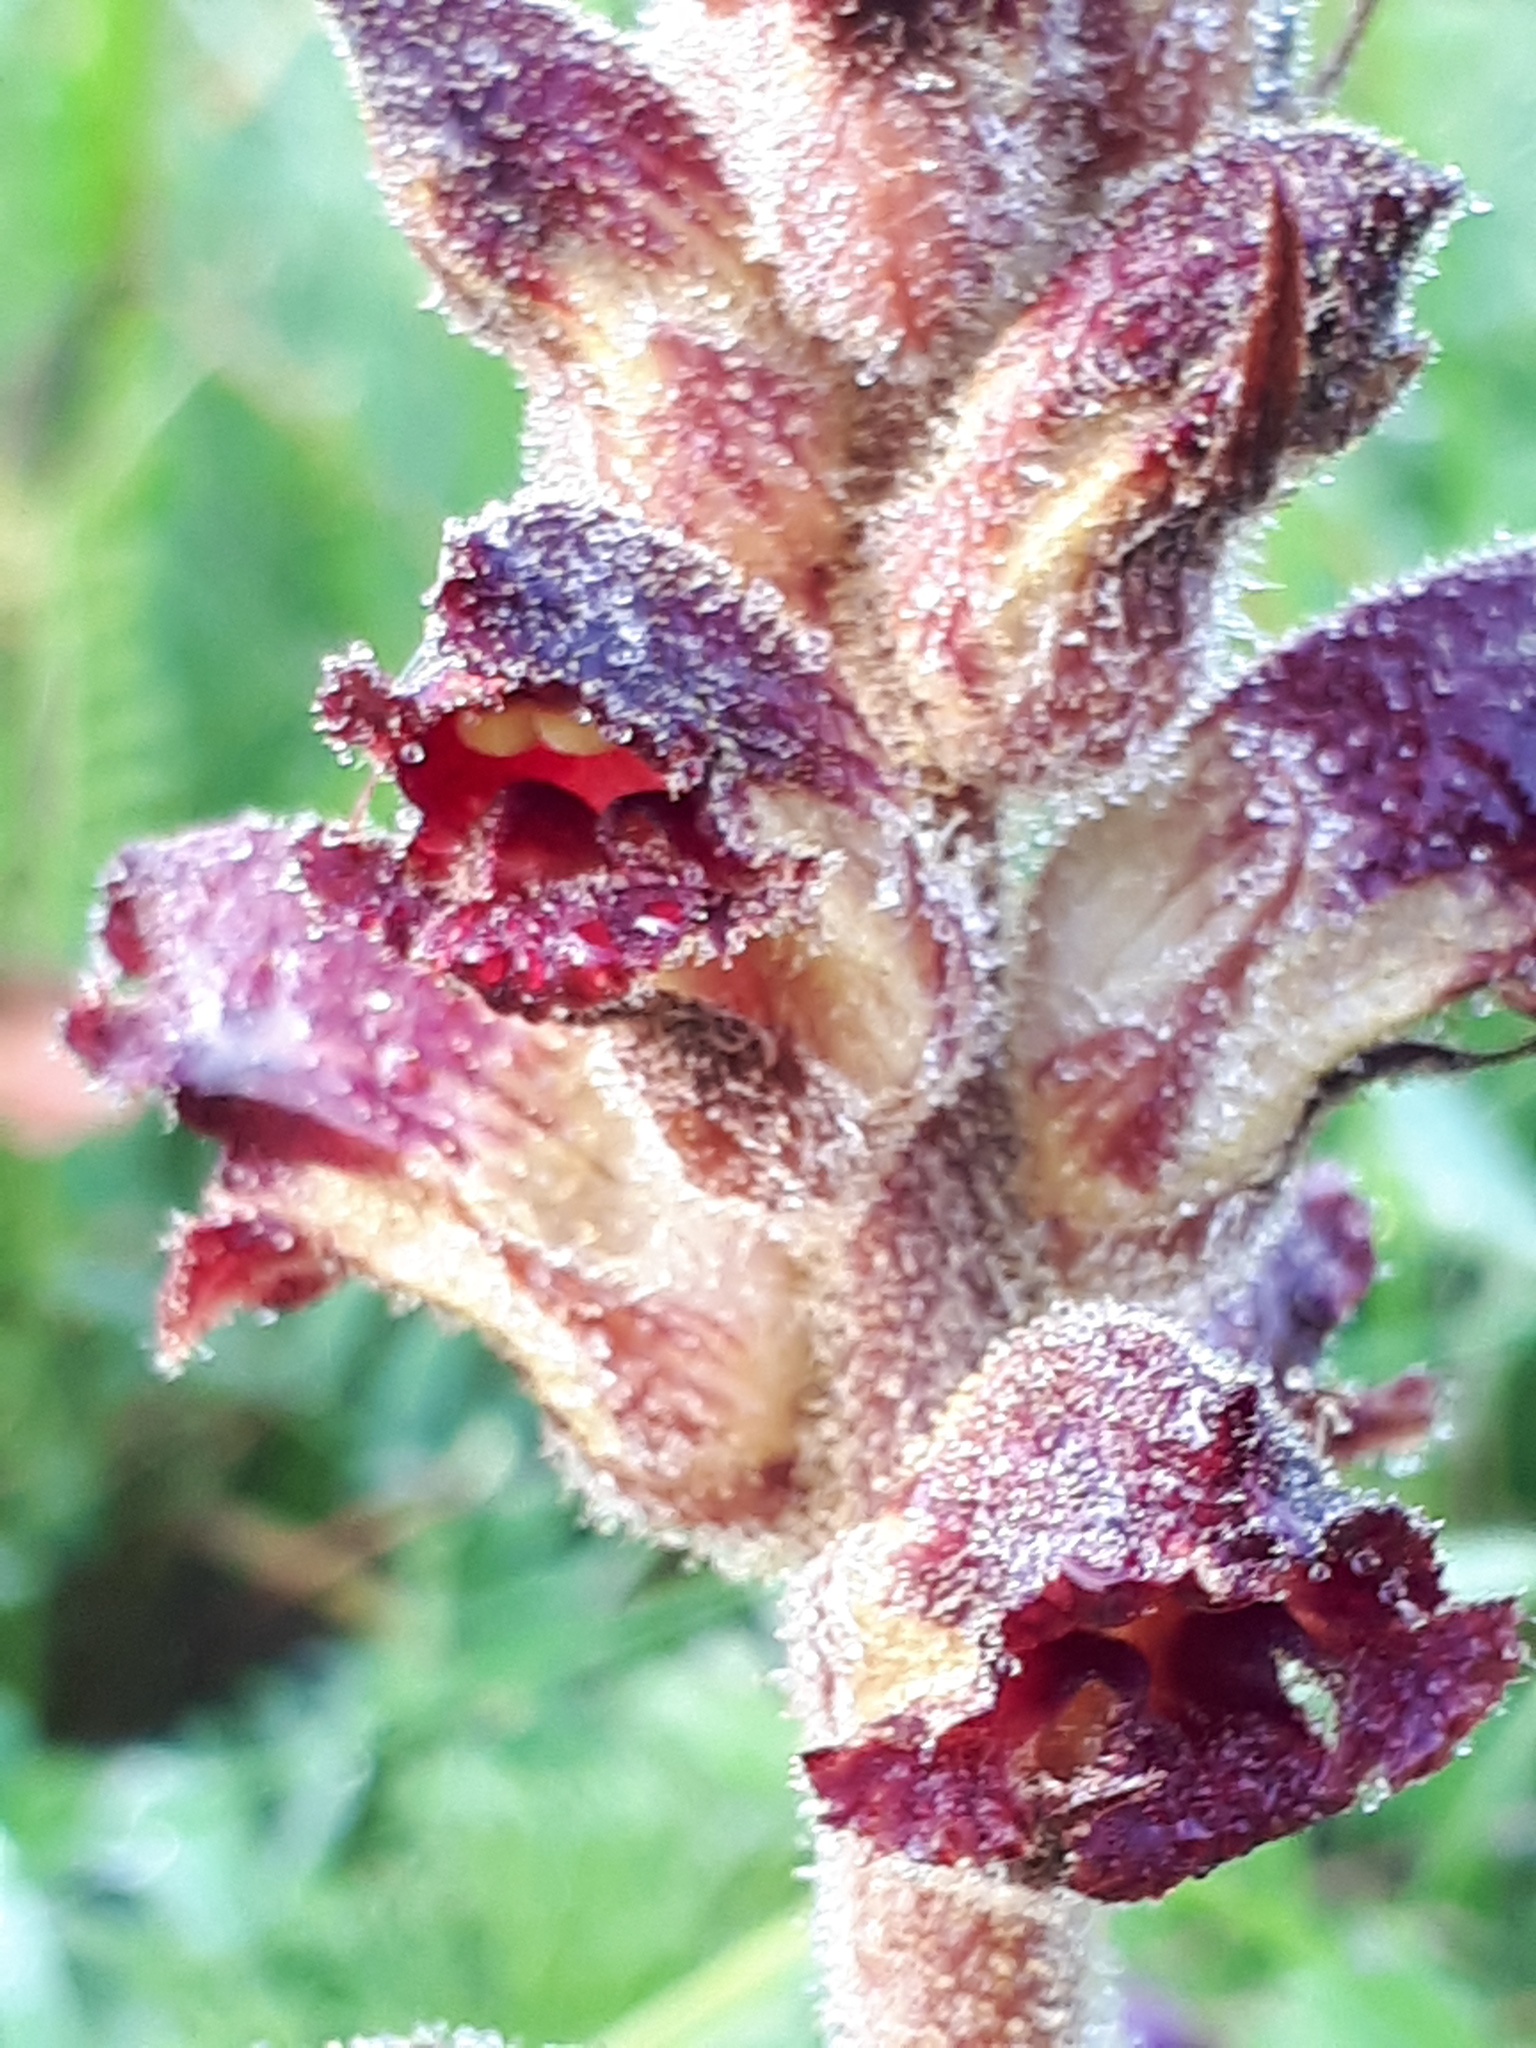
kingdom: Plantae
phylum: Tracheophyta
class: Magnoliopsida
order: Lamiales
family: Orobanchaceae
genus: Orobanche
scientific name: Orobanche gracilis
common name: Slender broomrape
